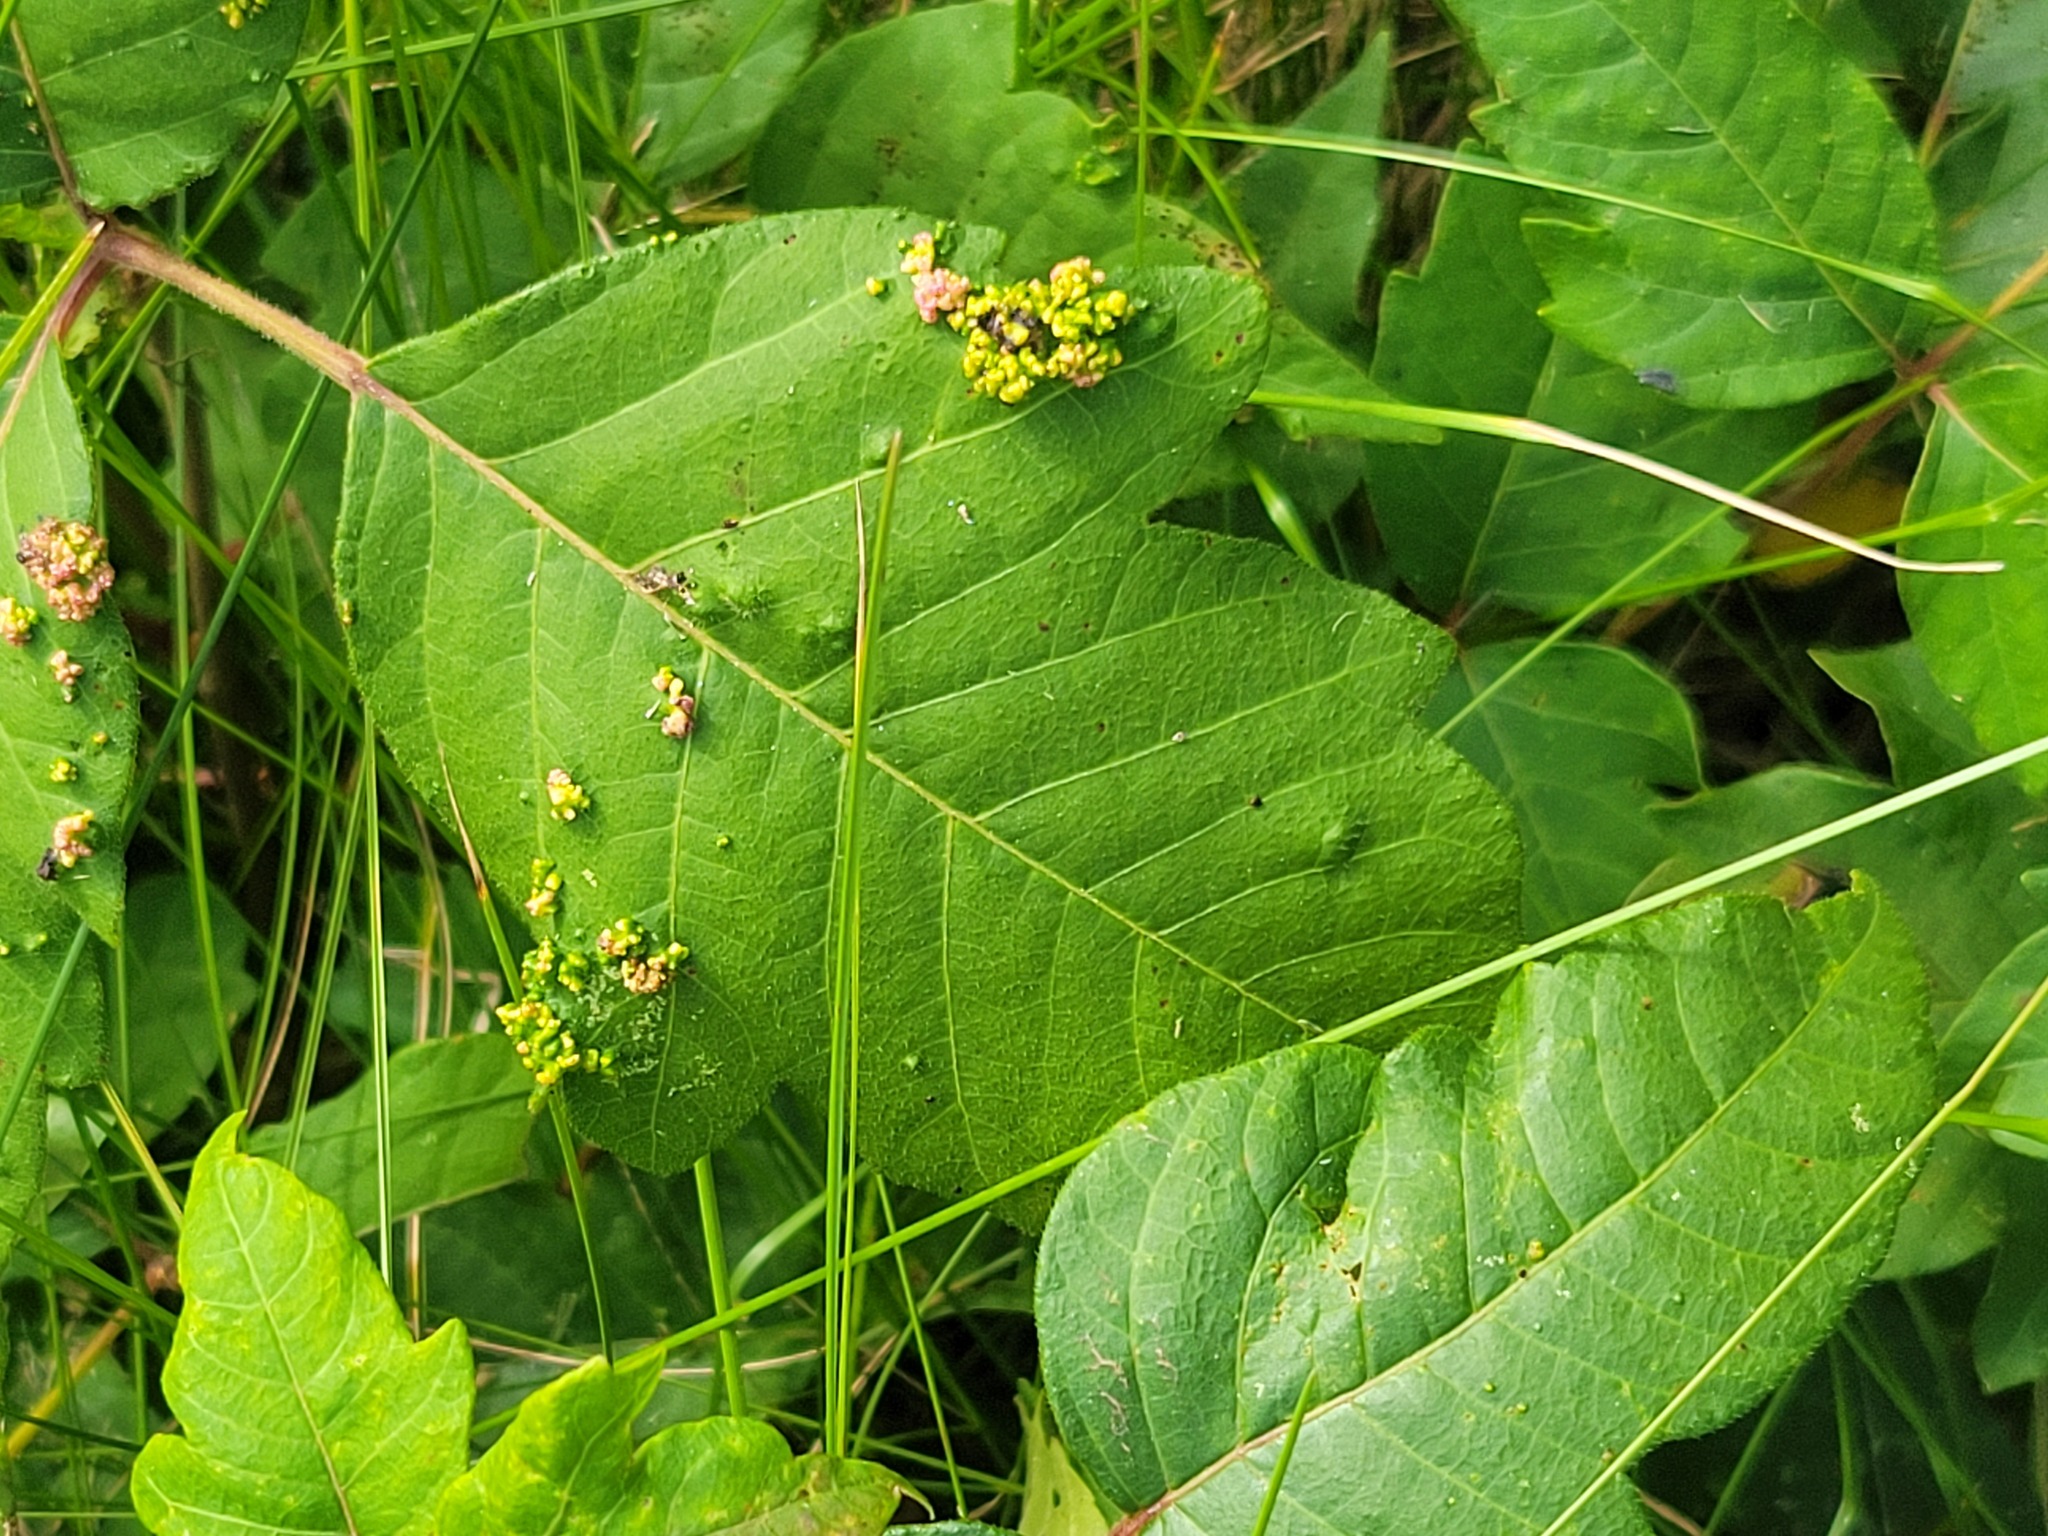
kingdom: Animalia
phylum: Arthropoda
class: Arachnida
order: Trombidiformes
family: Eriophyidae
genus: Aculops
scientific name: Aculops
